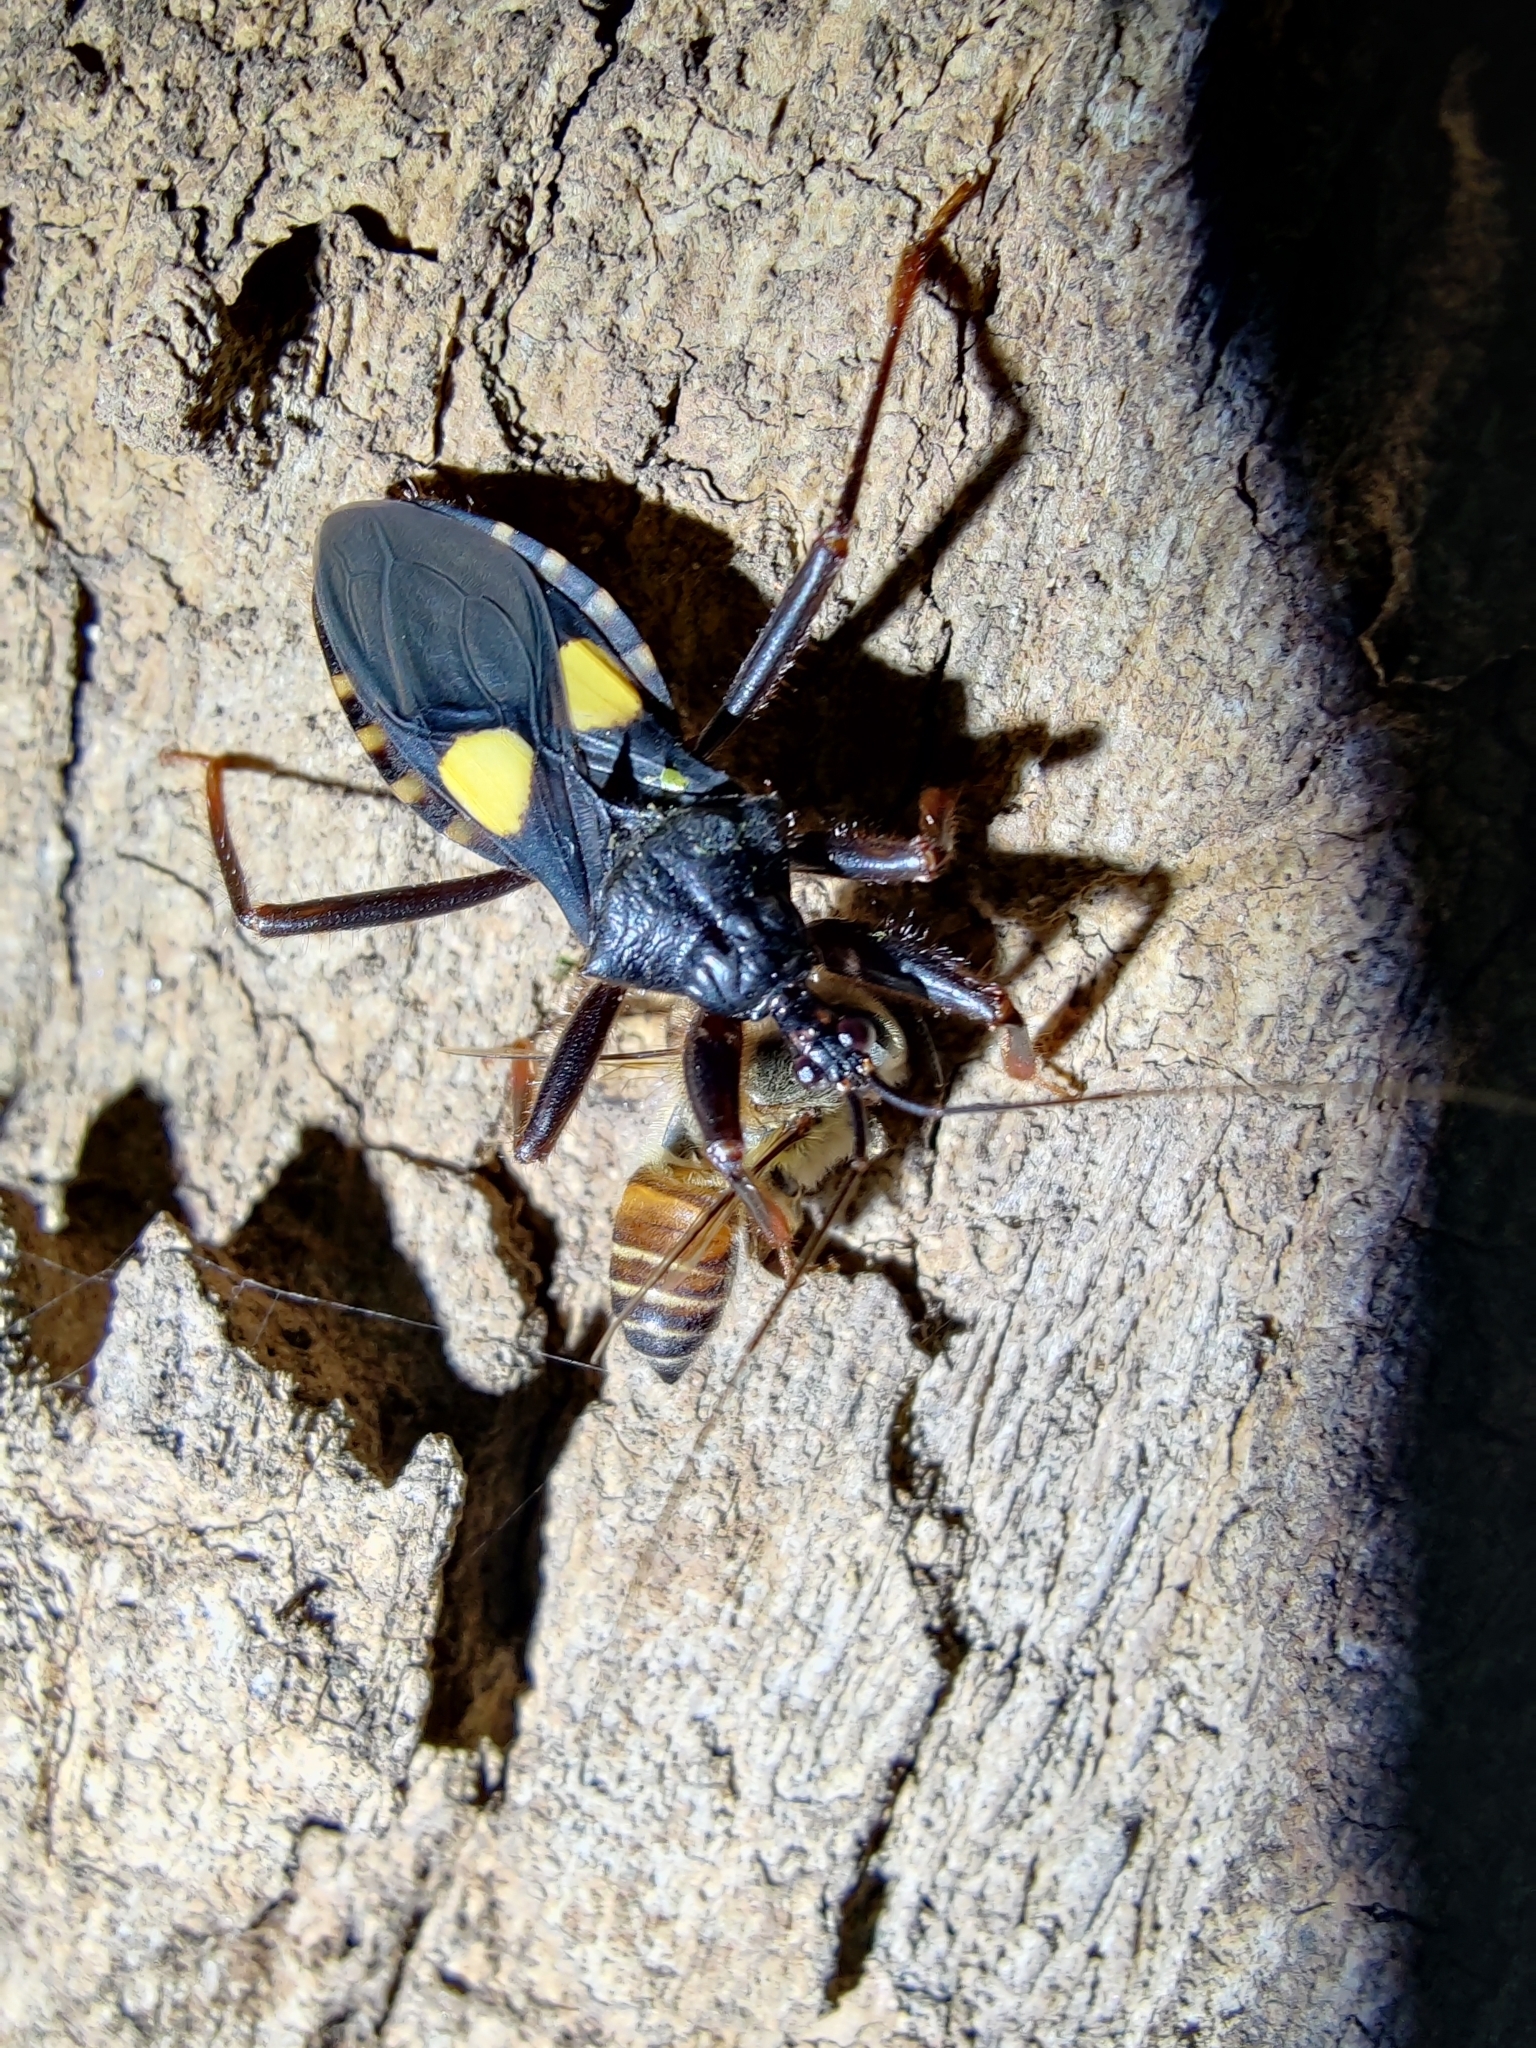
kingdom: Animalia
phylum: Arthropoda
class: Insecta
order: Hymenoptera
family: Apidae
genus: Apis
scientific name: Apis cerana
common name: Honey bee
